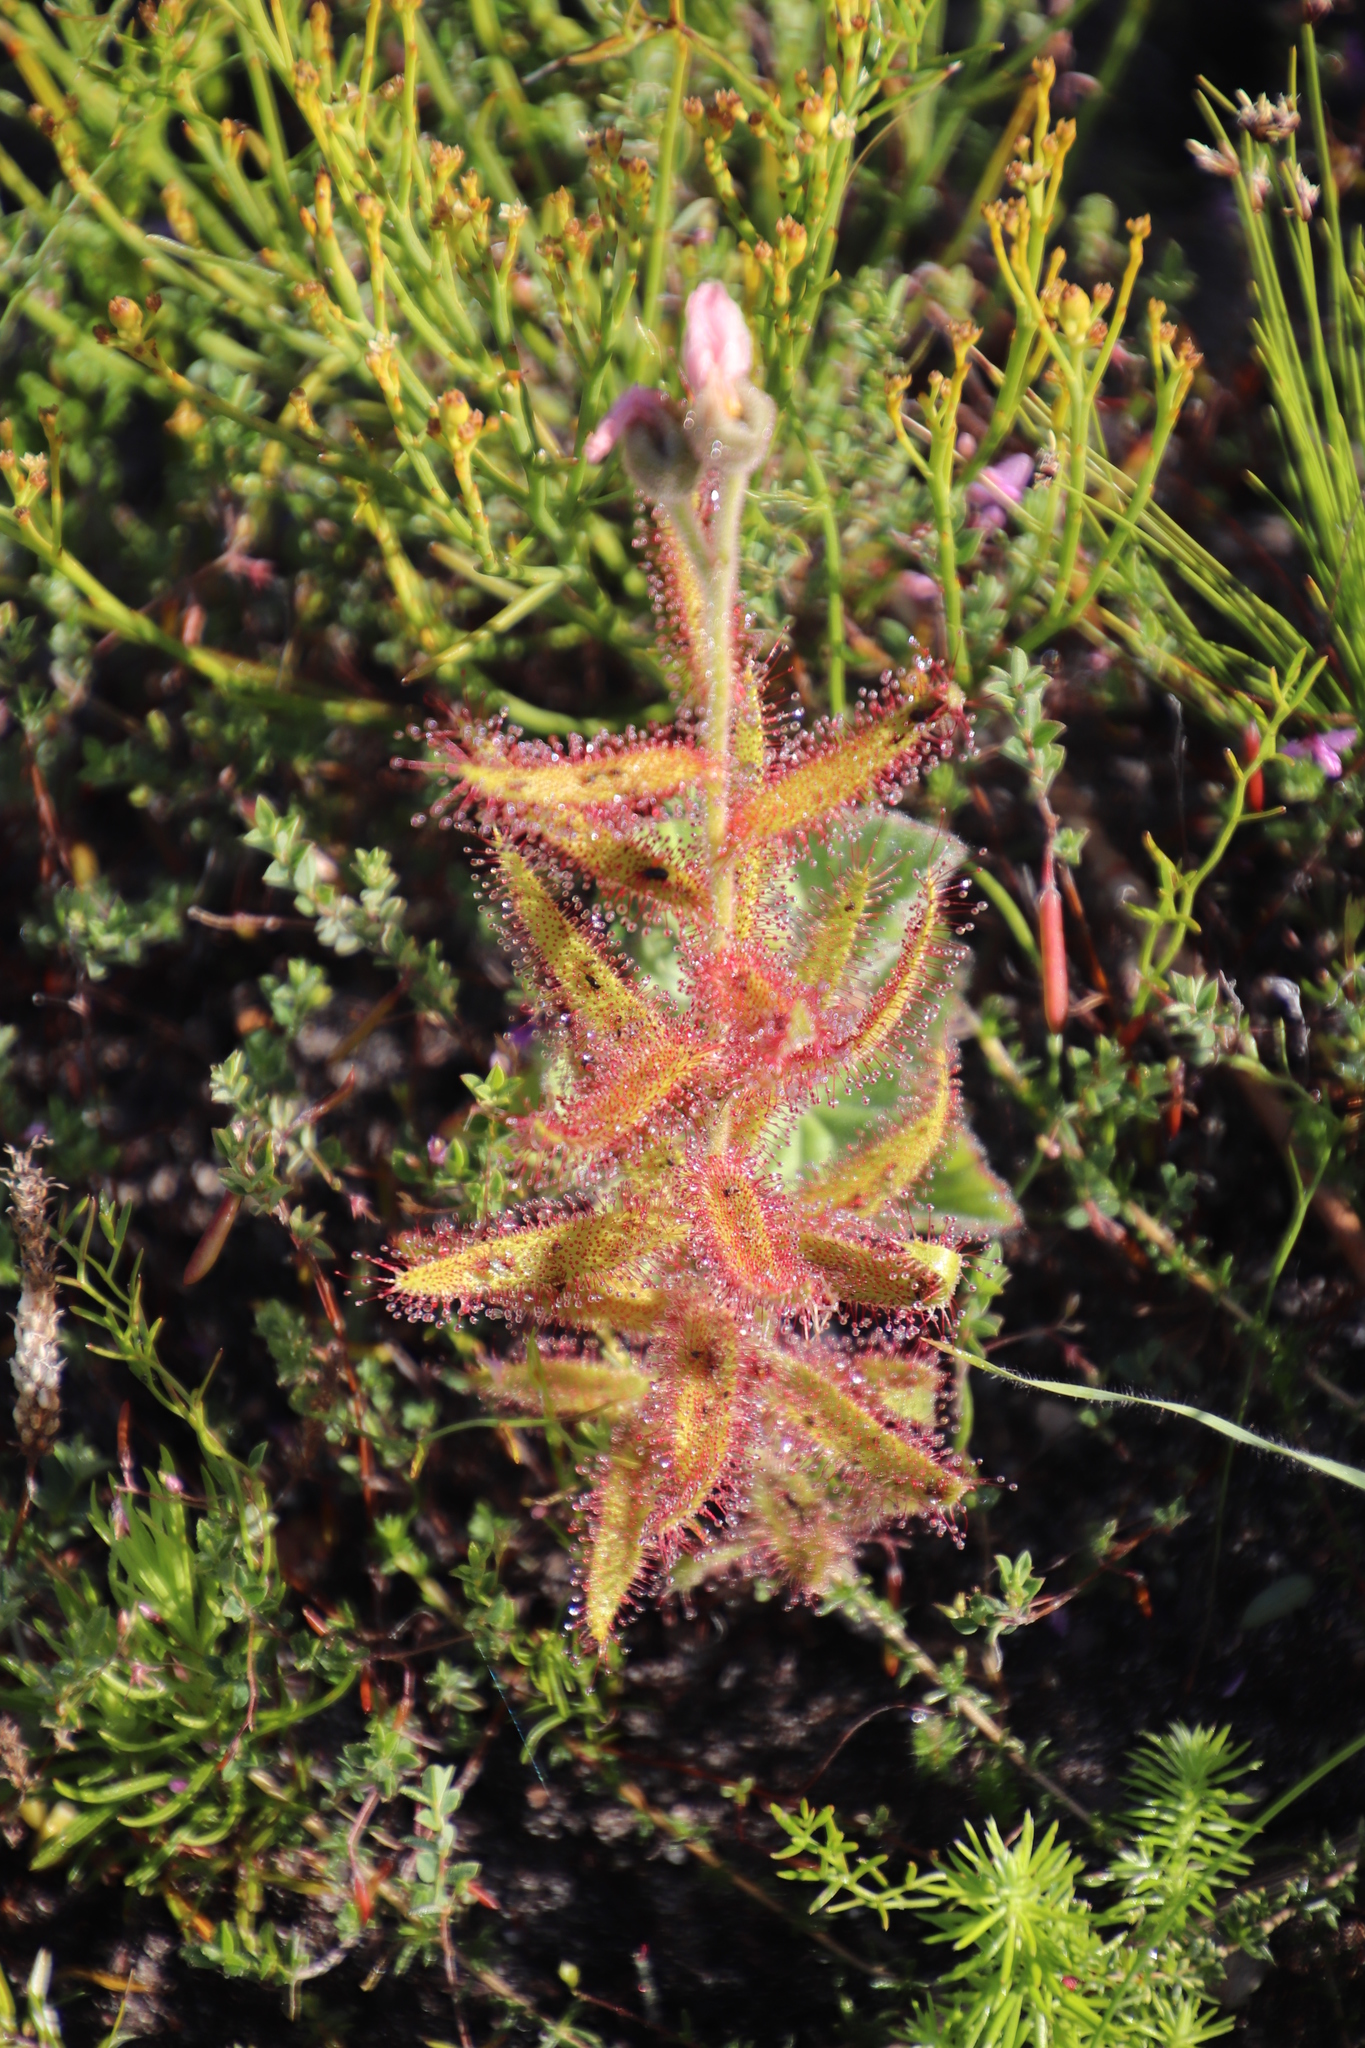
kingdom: Plantae
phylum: Tracheophyta
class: Magnoliopsida
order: Caryophyllales
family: Droseraceae
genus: Drosera
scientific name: Drosera cistiflora
